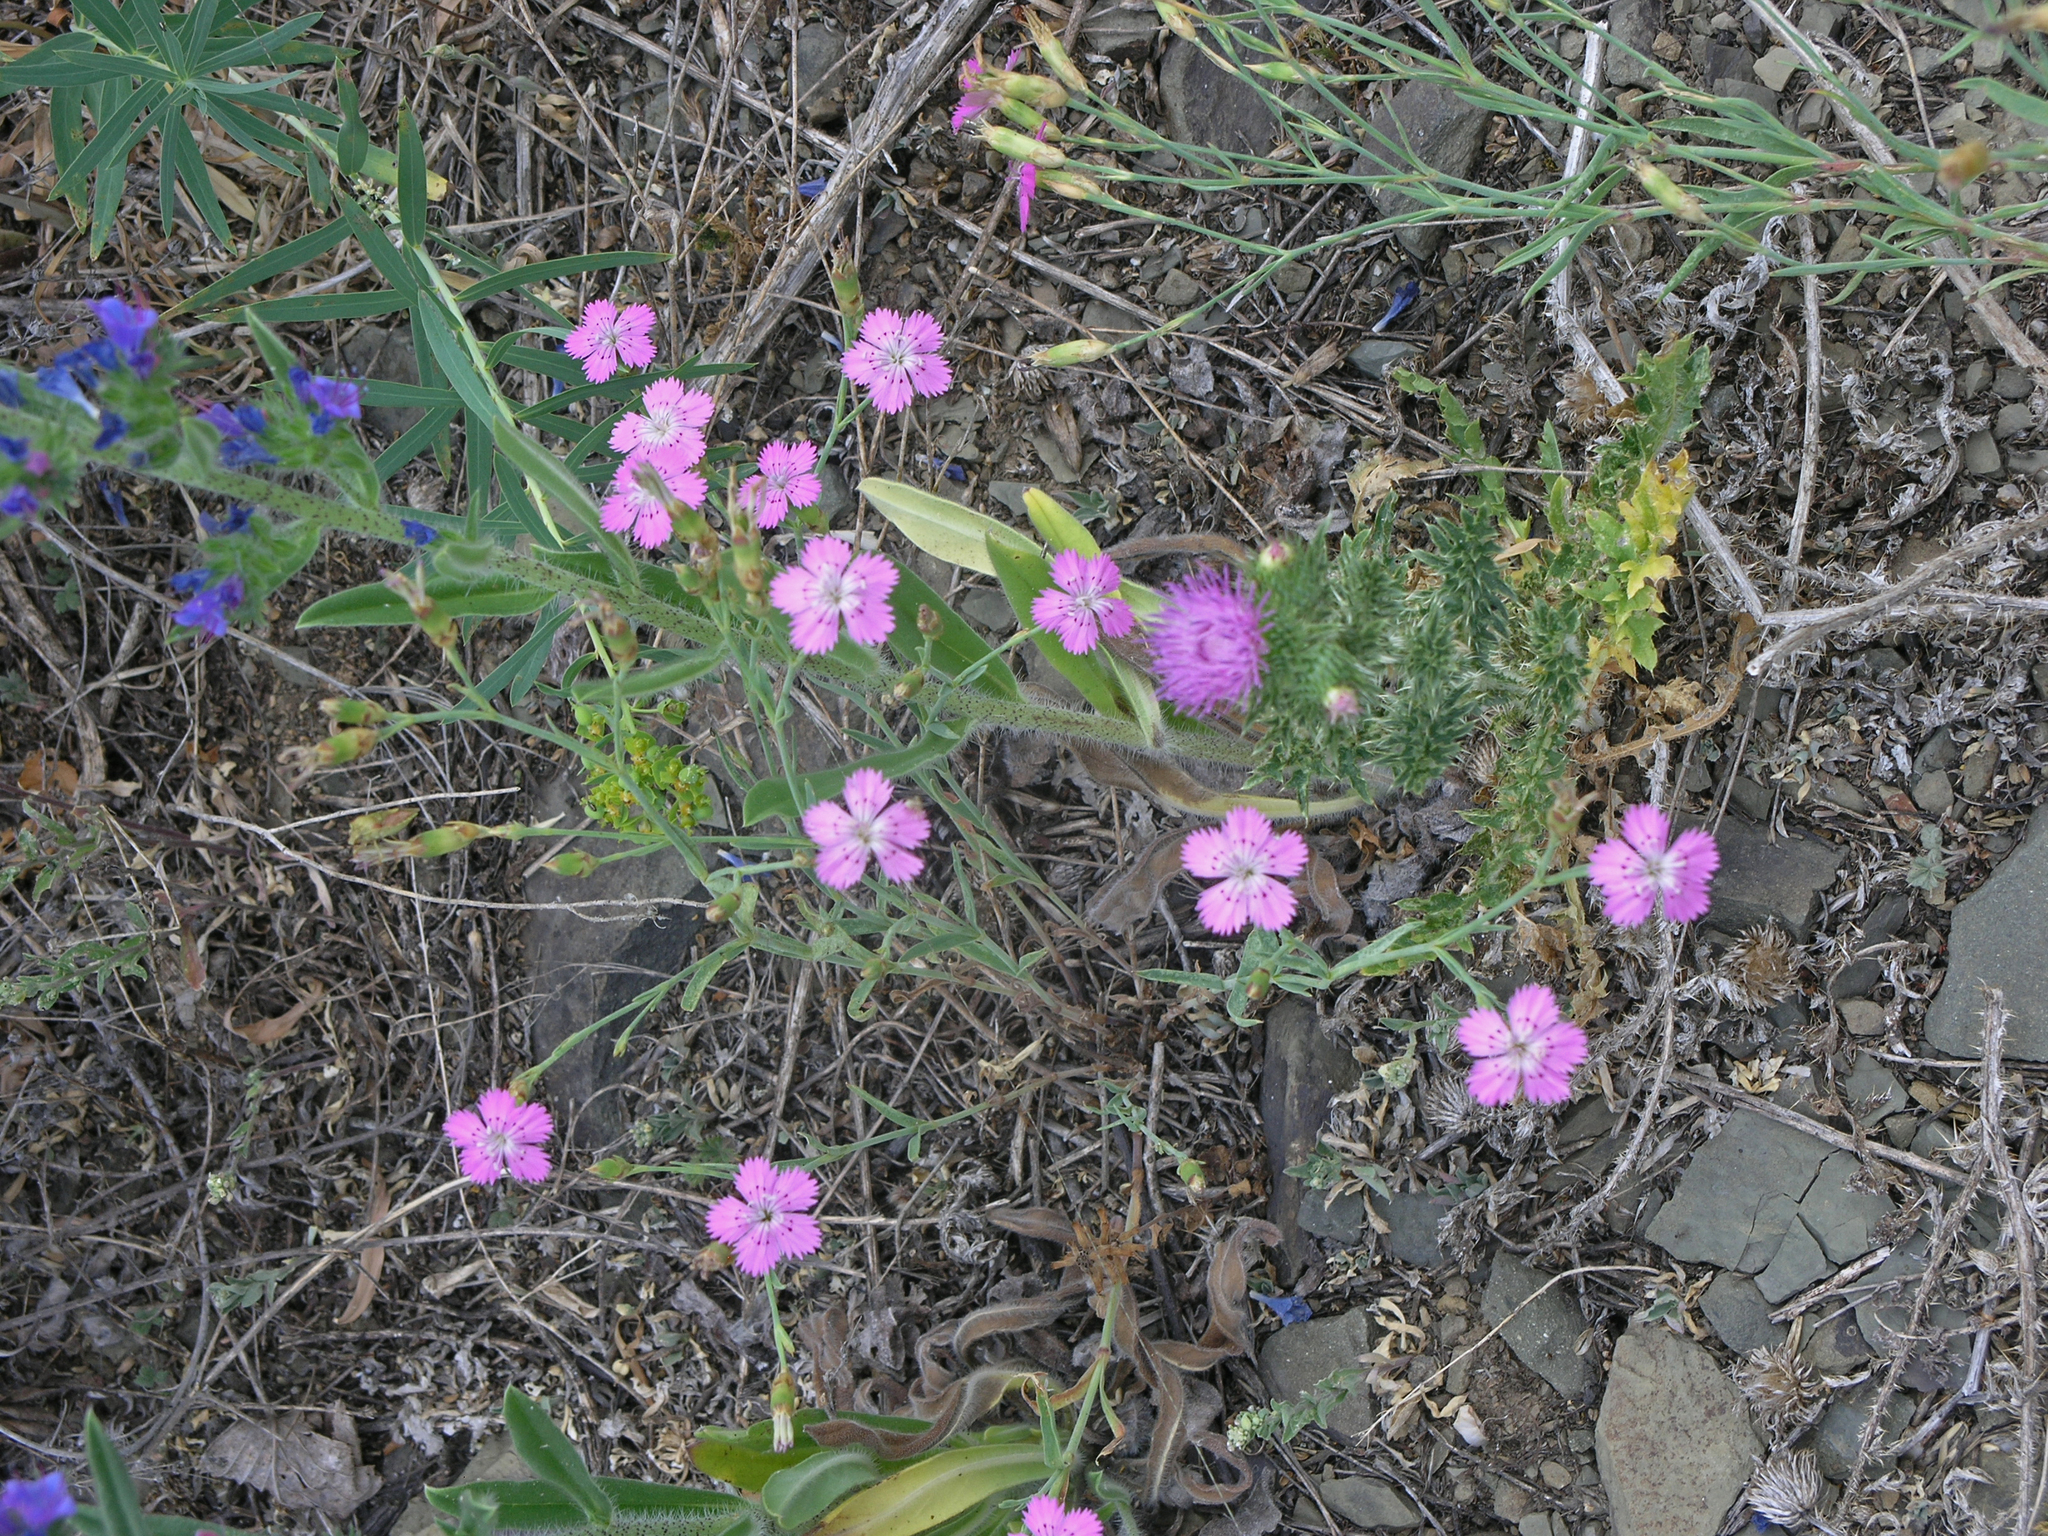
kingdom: Plantae
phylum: Tracheophyta
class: Magnoliopsida
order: Caryophyllales
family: Caryophyllaceae
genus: Dianthus
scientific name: Dianthus chinensis
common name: Rainbow pink
